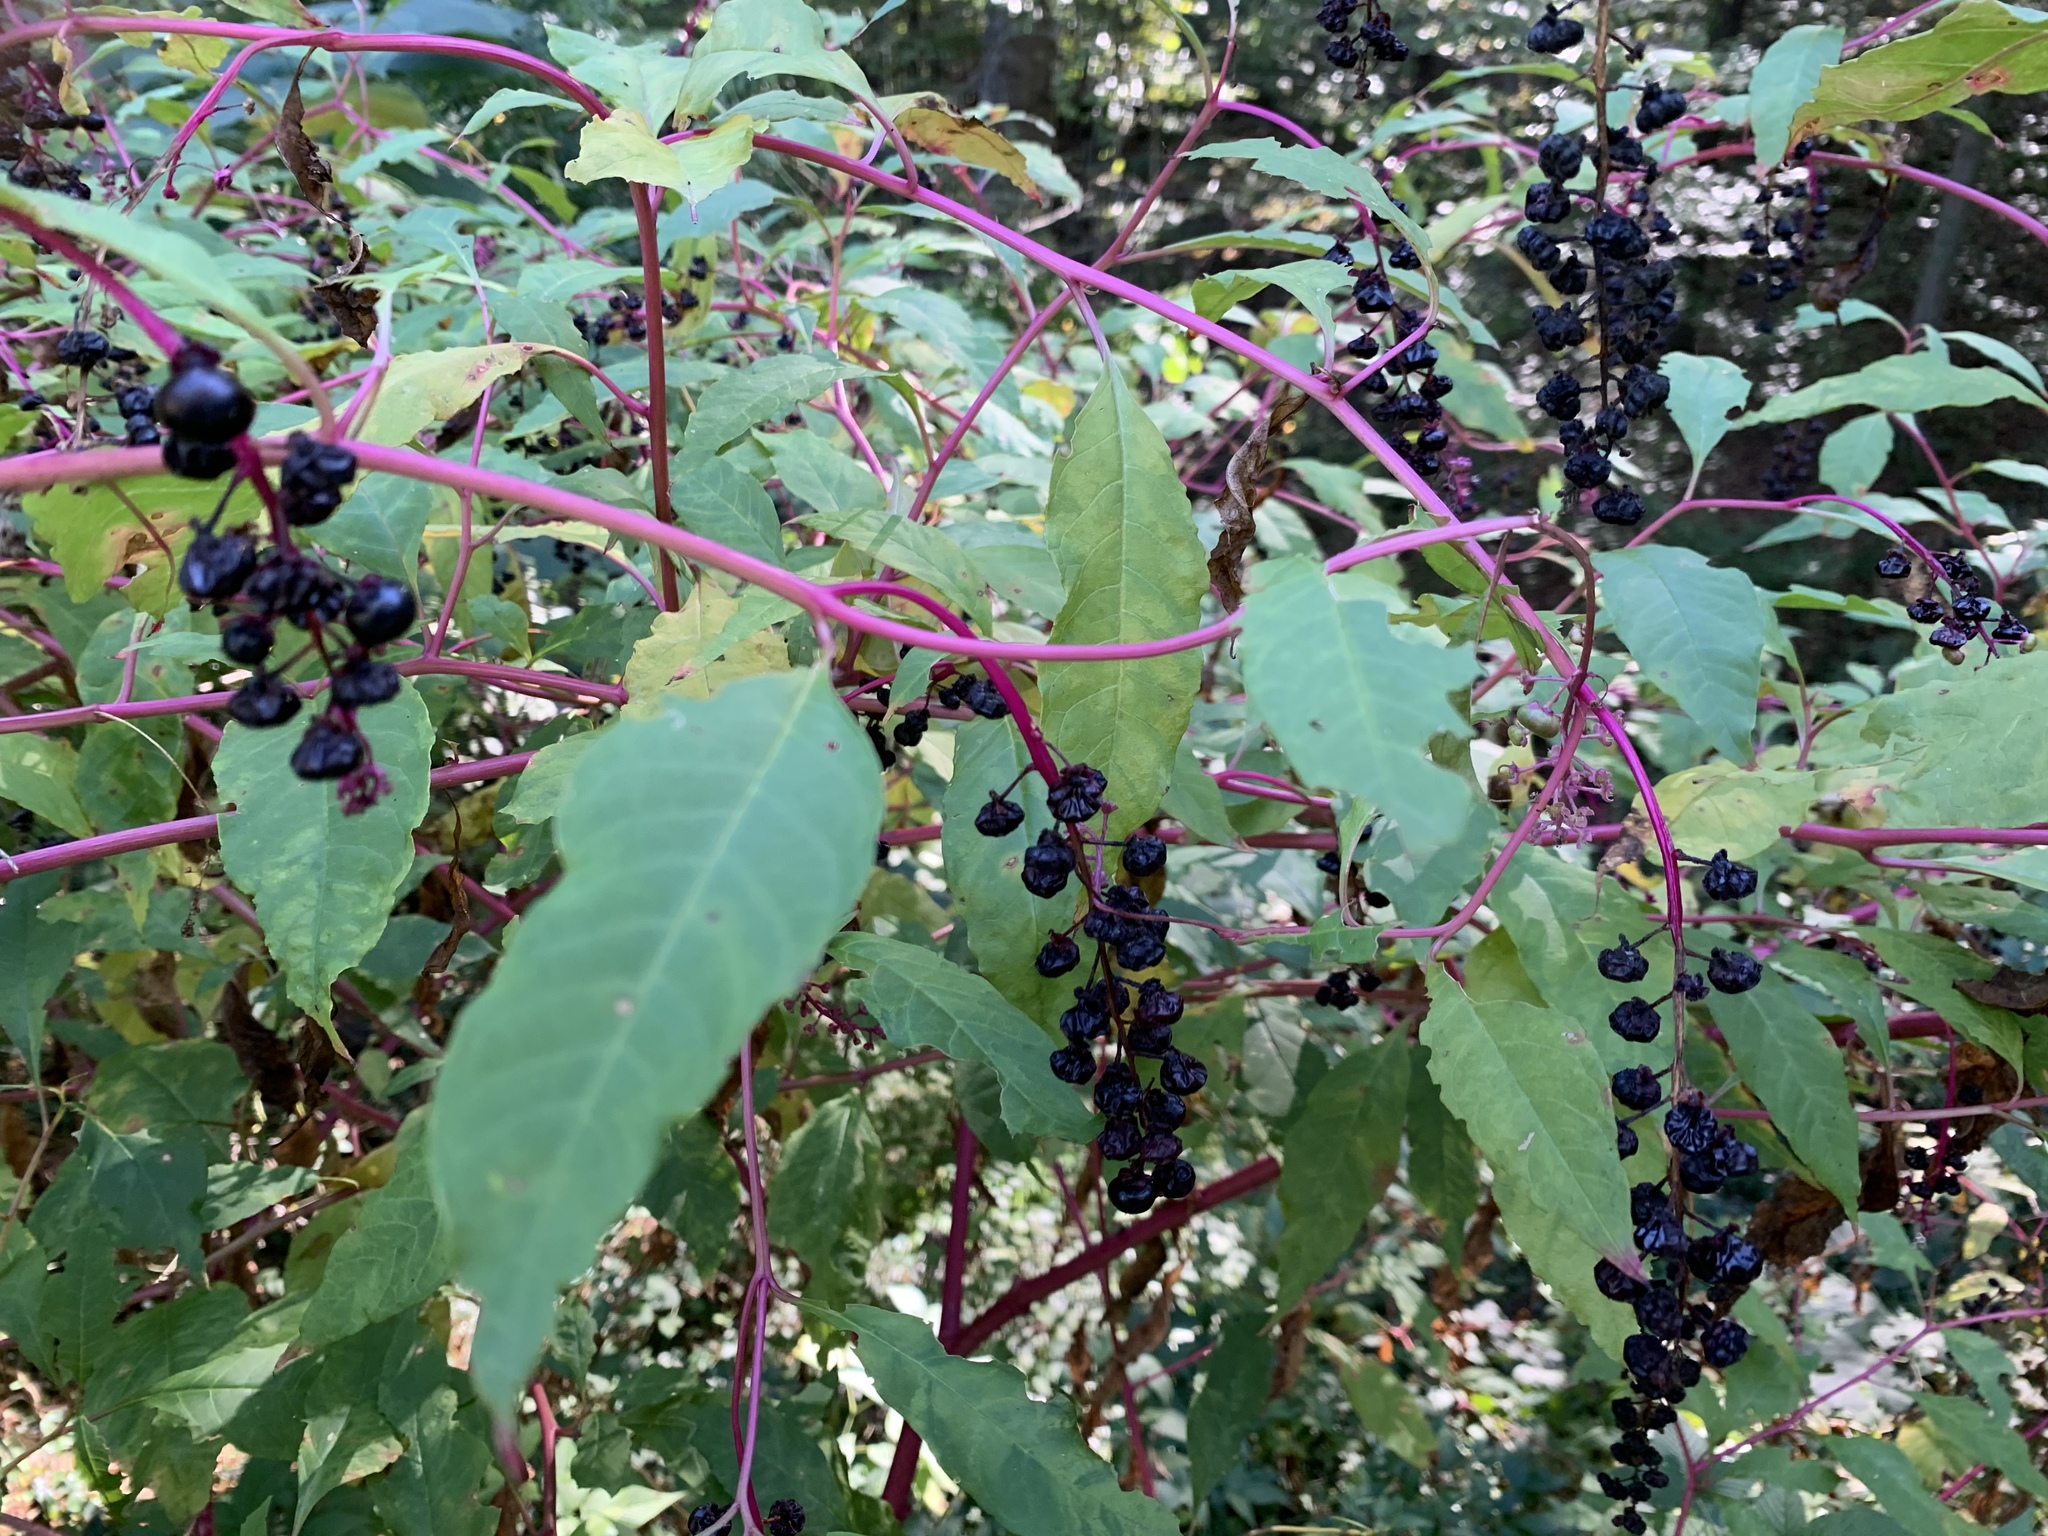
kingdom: Plantae
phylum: Tracheophyta
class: Magnoliopsida
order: Caryophyllales
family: Phytolaccaceae
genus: Phytolacca
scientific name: Phytolacca americana
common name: American pokeweed
